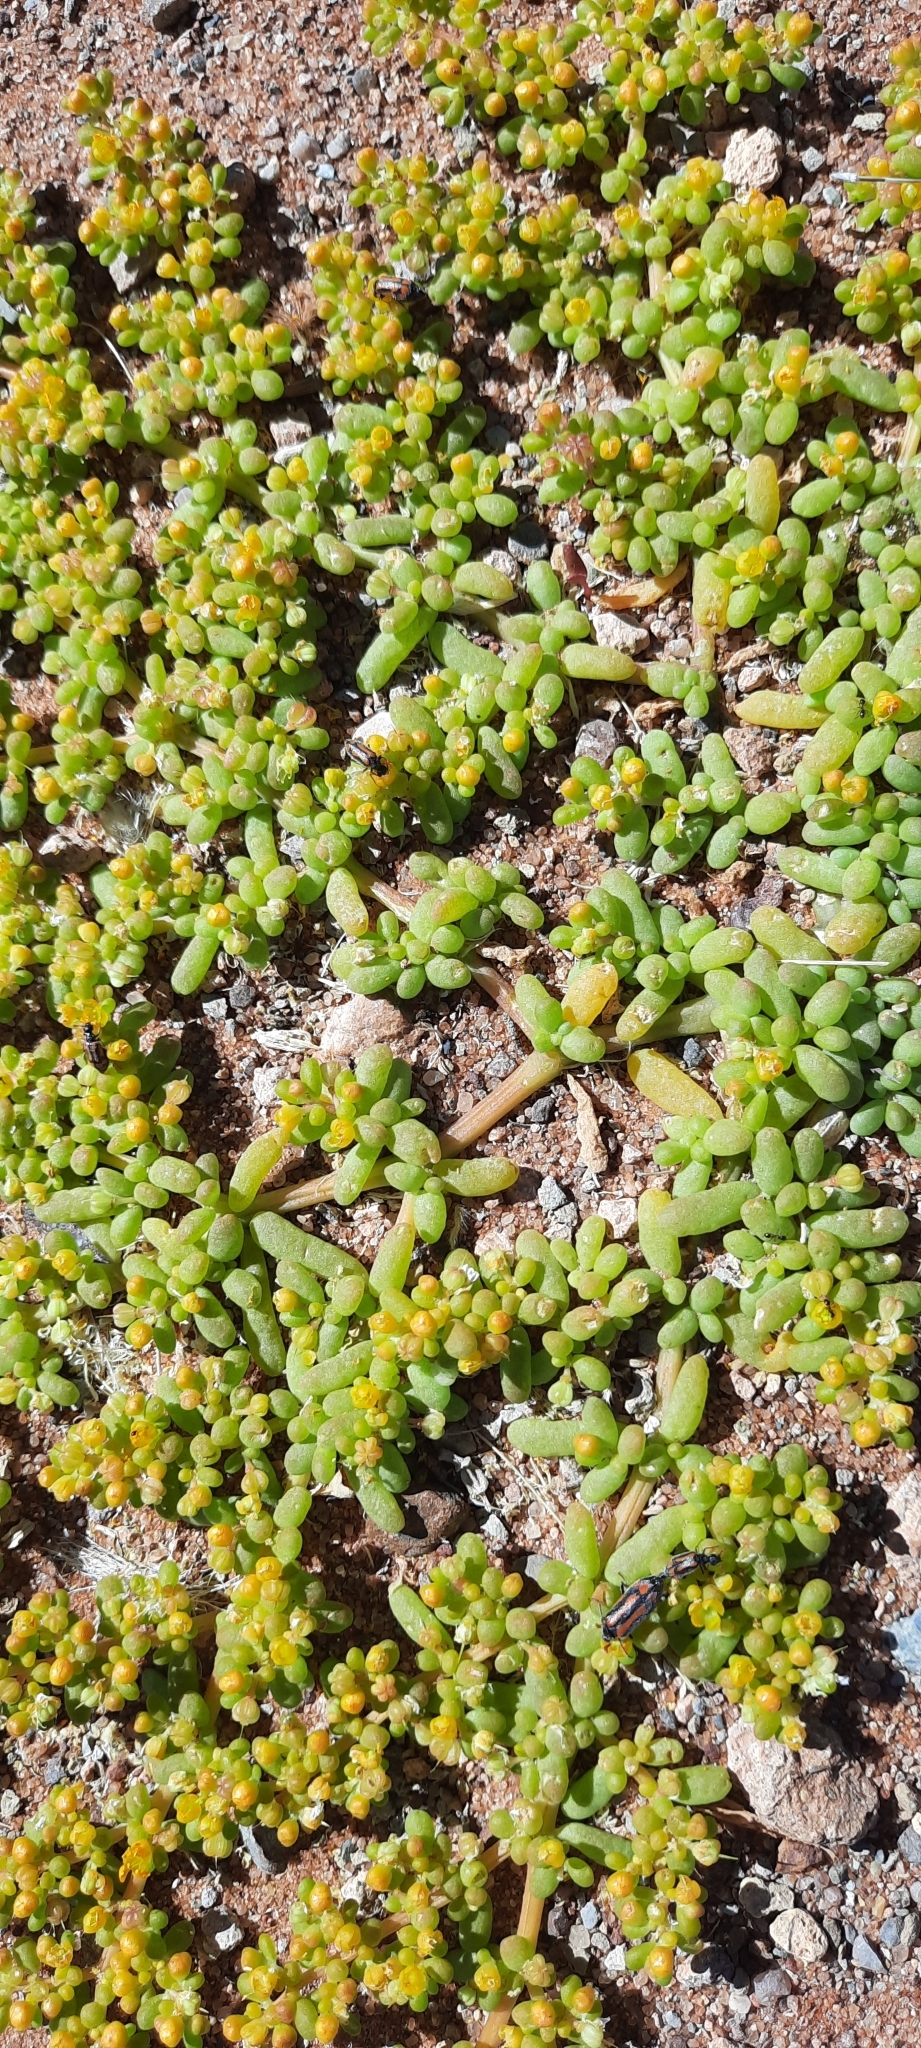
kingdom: Plantae
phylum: Tracheophyta
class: Magnoliopsida
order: Zygophyllales
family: Zygophyllaceae
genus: Tetraena
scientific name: Tetraena simplex
